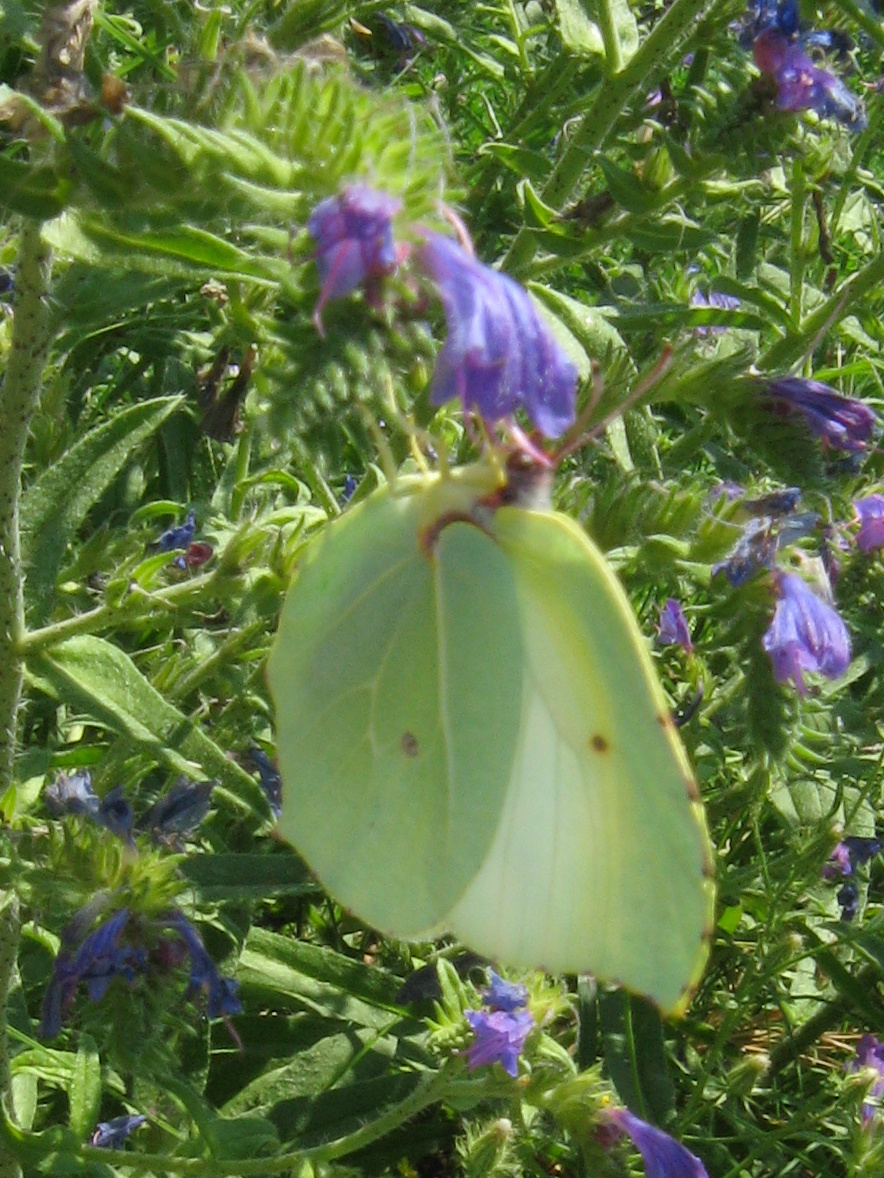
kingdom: Animalia
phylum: Arthropoda
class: Insecta
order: Lepidoptera
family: Pieridae
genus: Gonepteryx
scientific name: Gonepteryx rhamni
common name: Brimstone
